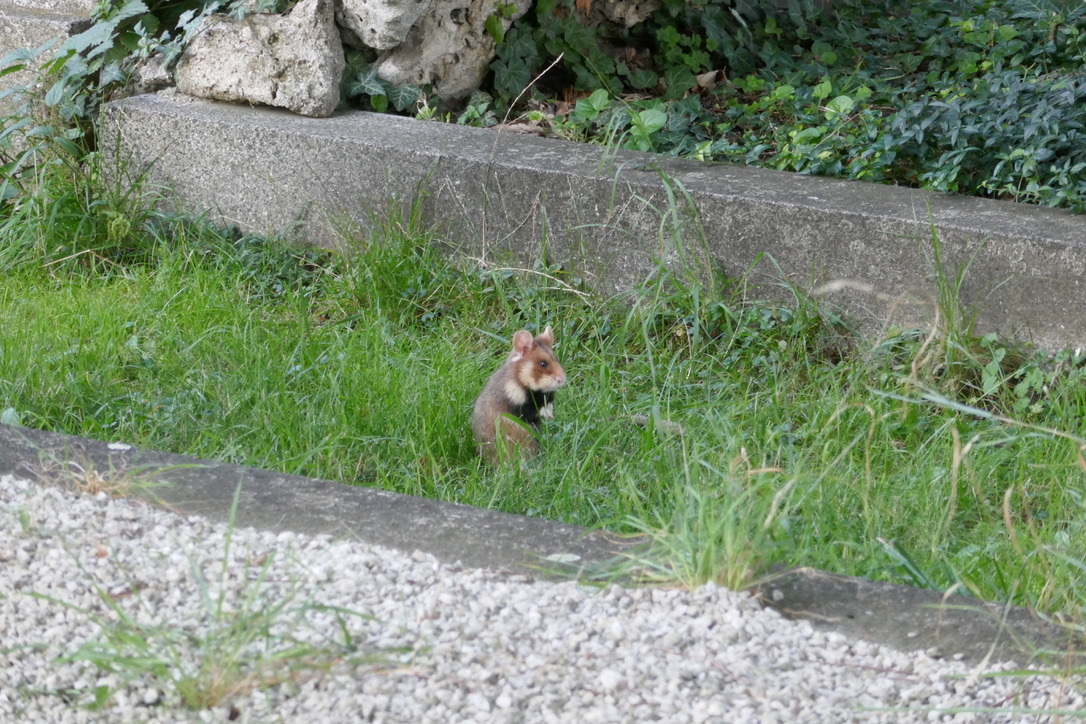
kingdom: Animalia
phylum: Chordata
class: Mammalia
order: Rodentia
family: Cricetidae
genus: Cricetus
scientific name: Cricetus cricetus
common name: Common hamster
